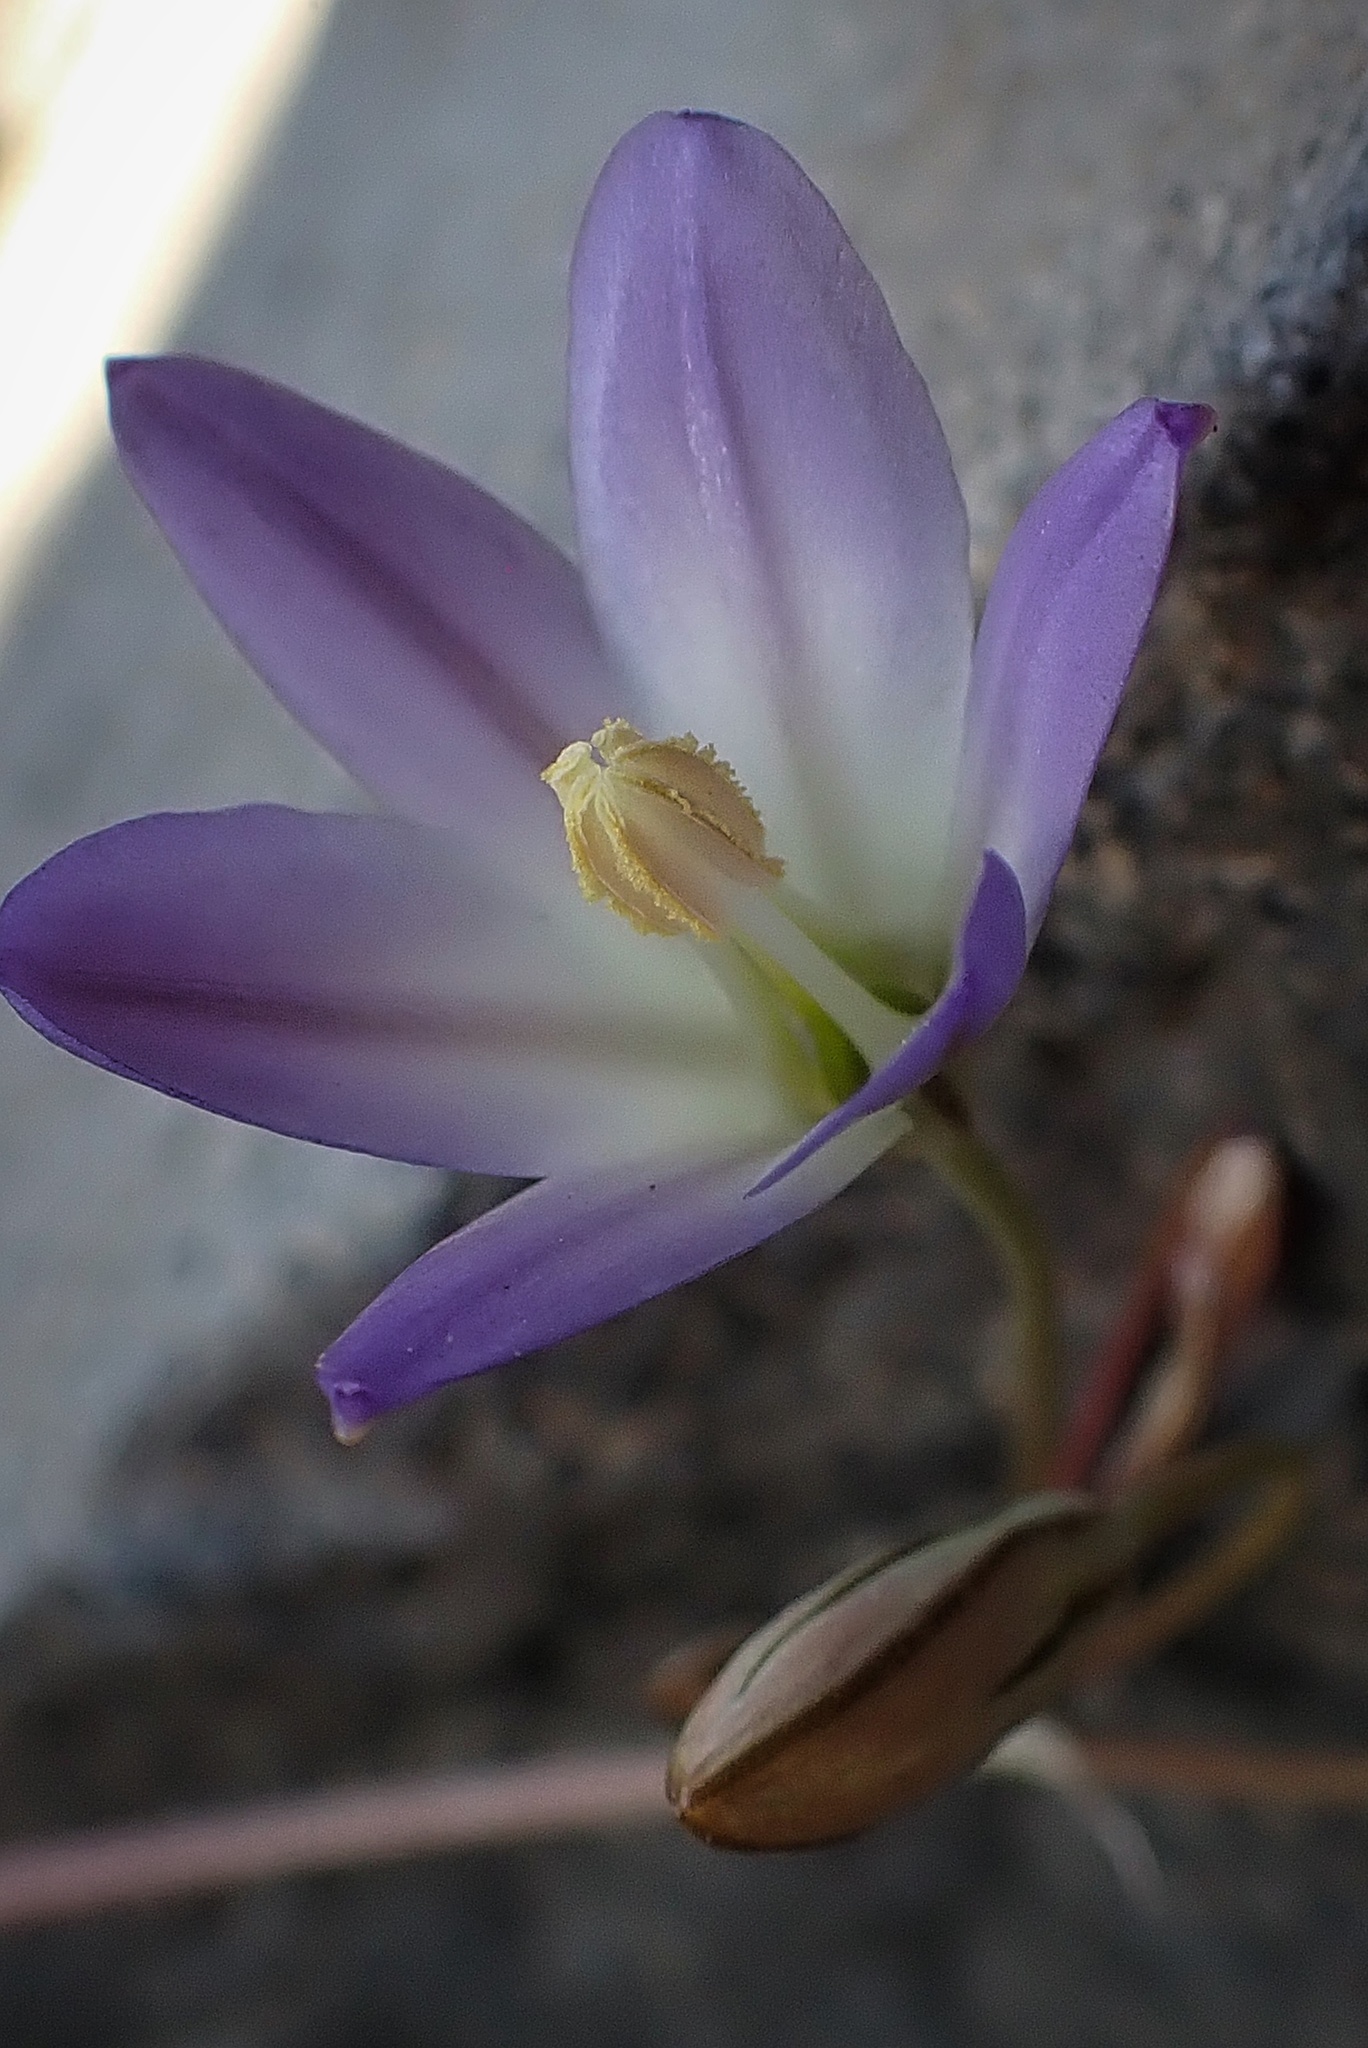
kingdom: Plantae
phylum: Tracheophyta
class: Liliopsida
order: Asparagales
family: Asparagaceae
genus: Brodiaea
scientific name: Brodiaea orcuttii
